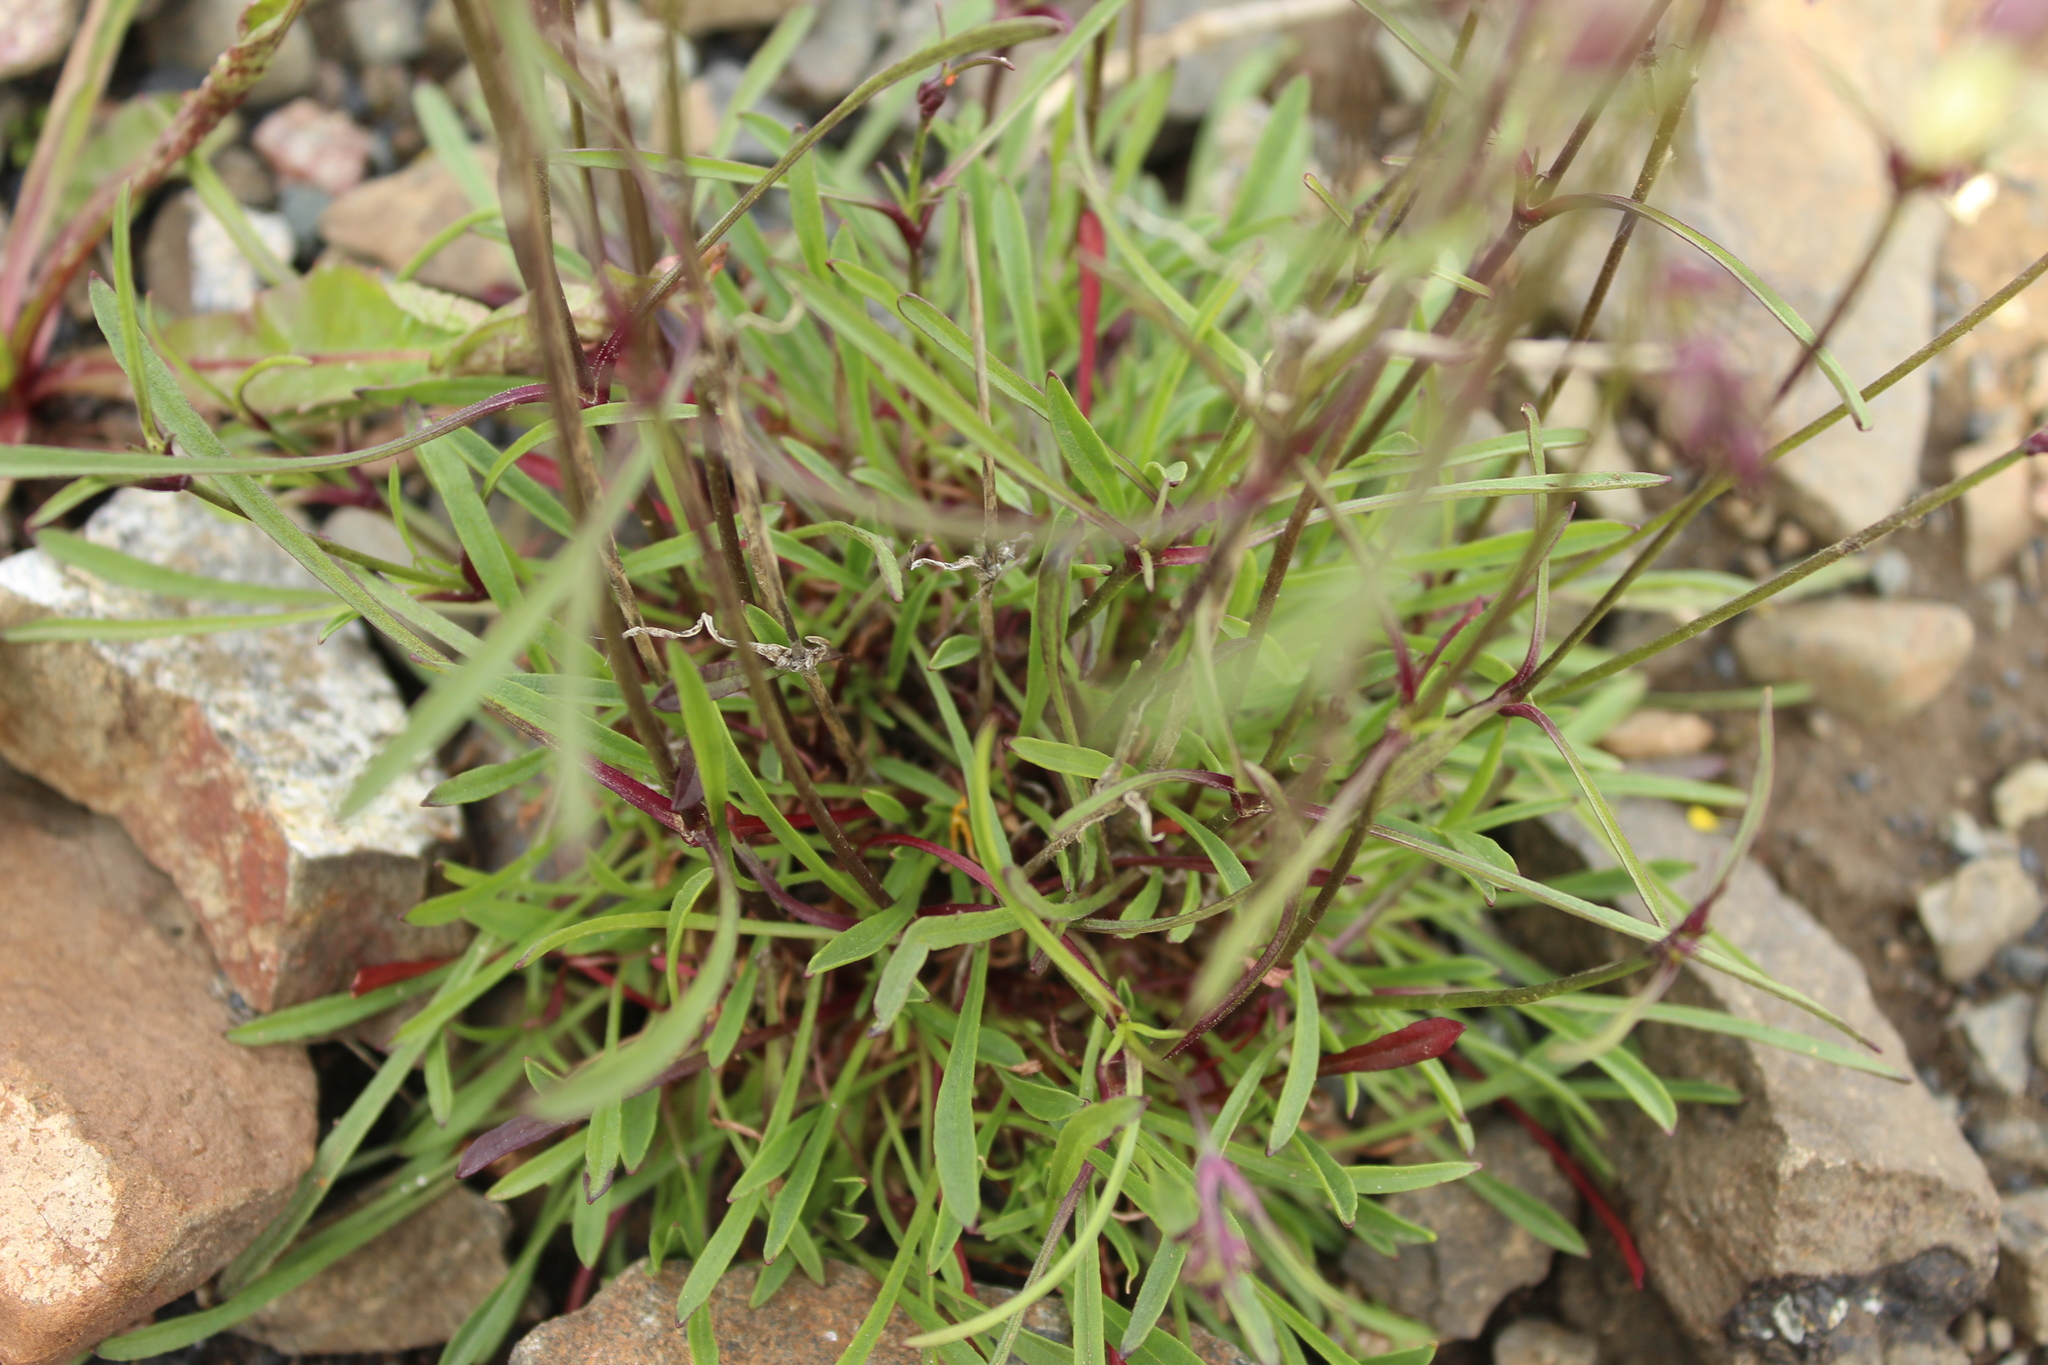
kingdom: Plantae
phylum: Tracheophyta
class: Magnoliopsida
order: Caryophyllales
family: Caryophyllaceae
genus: Silene
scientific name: Silene chamarensis
